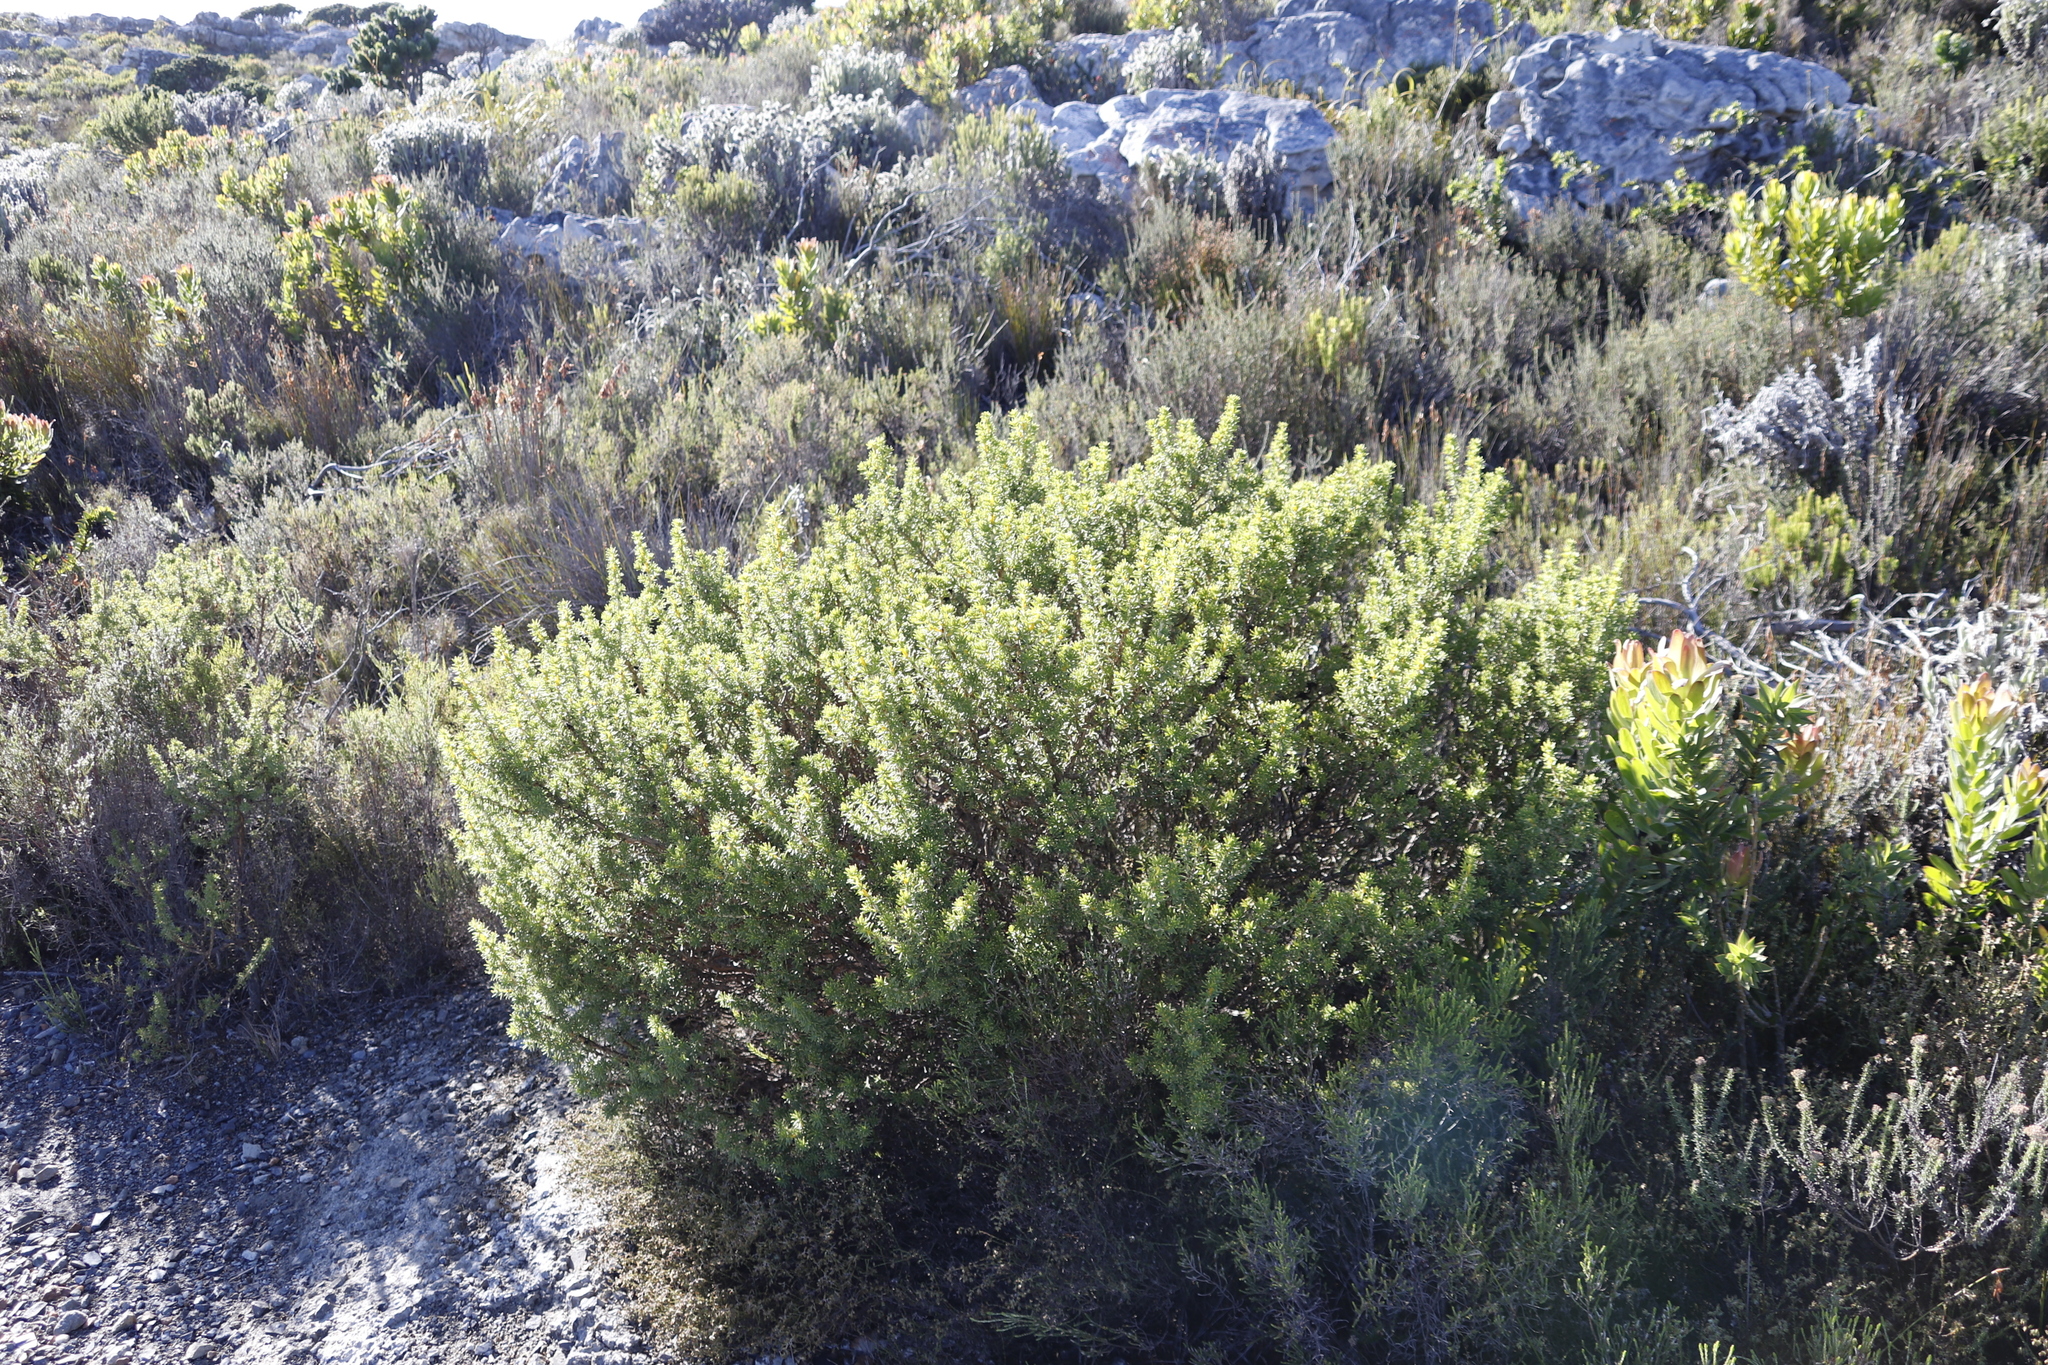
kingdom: Plantae
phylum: Tracheophyta
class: Magnoliopsida
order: Fabales
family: Fabaceae
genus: Aspalathus
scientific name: Aspalathus capensis
